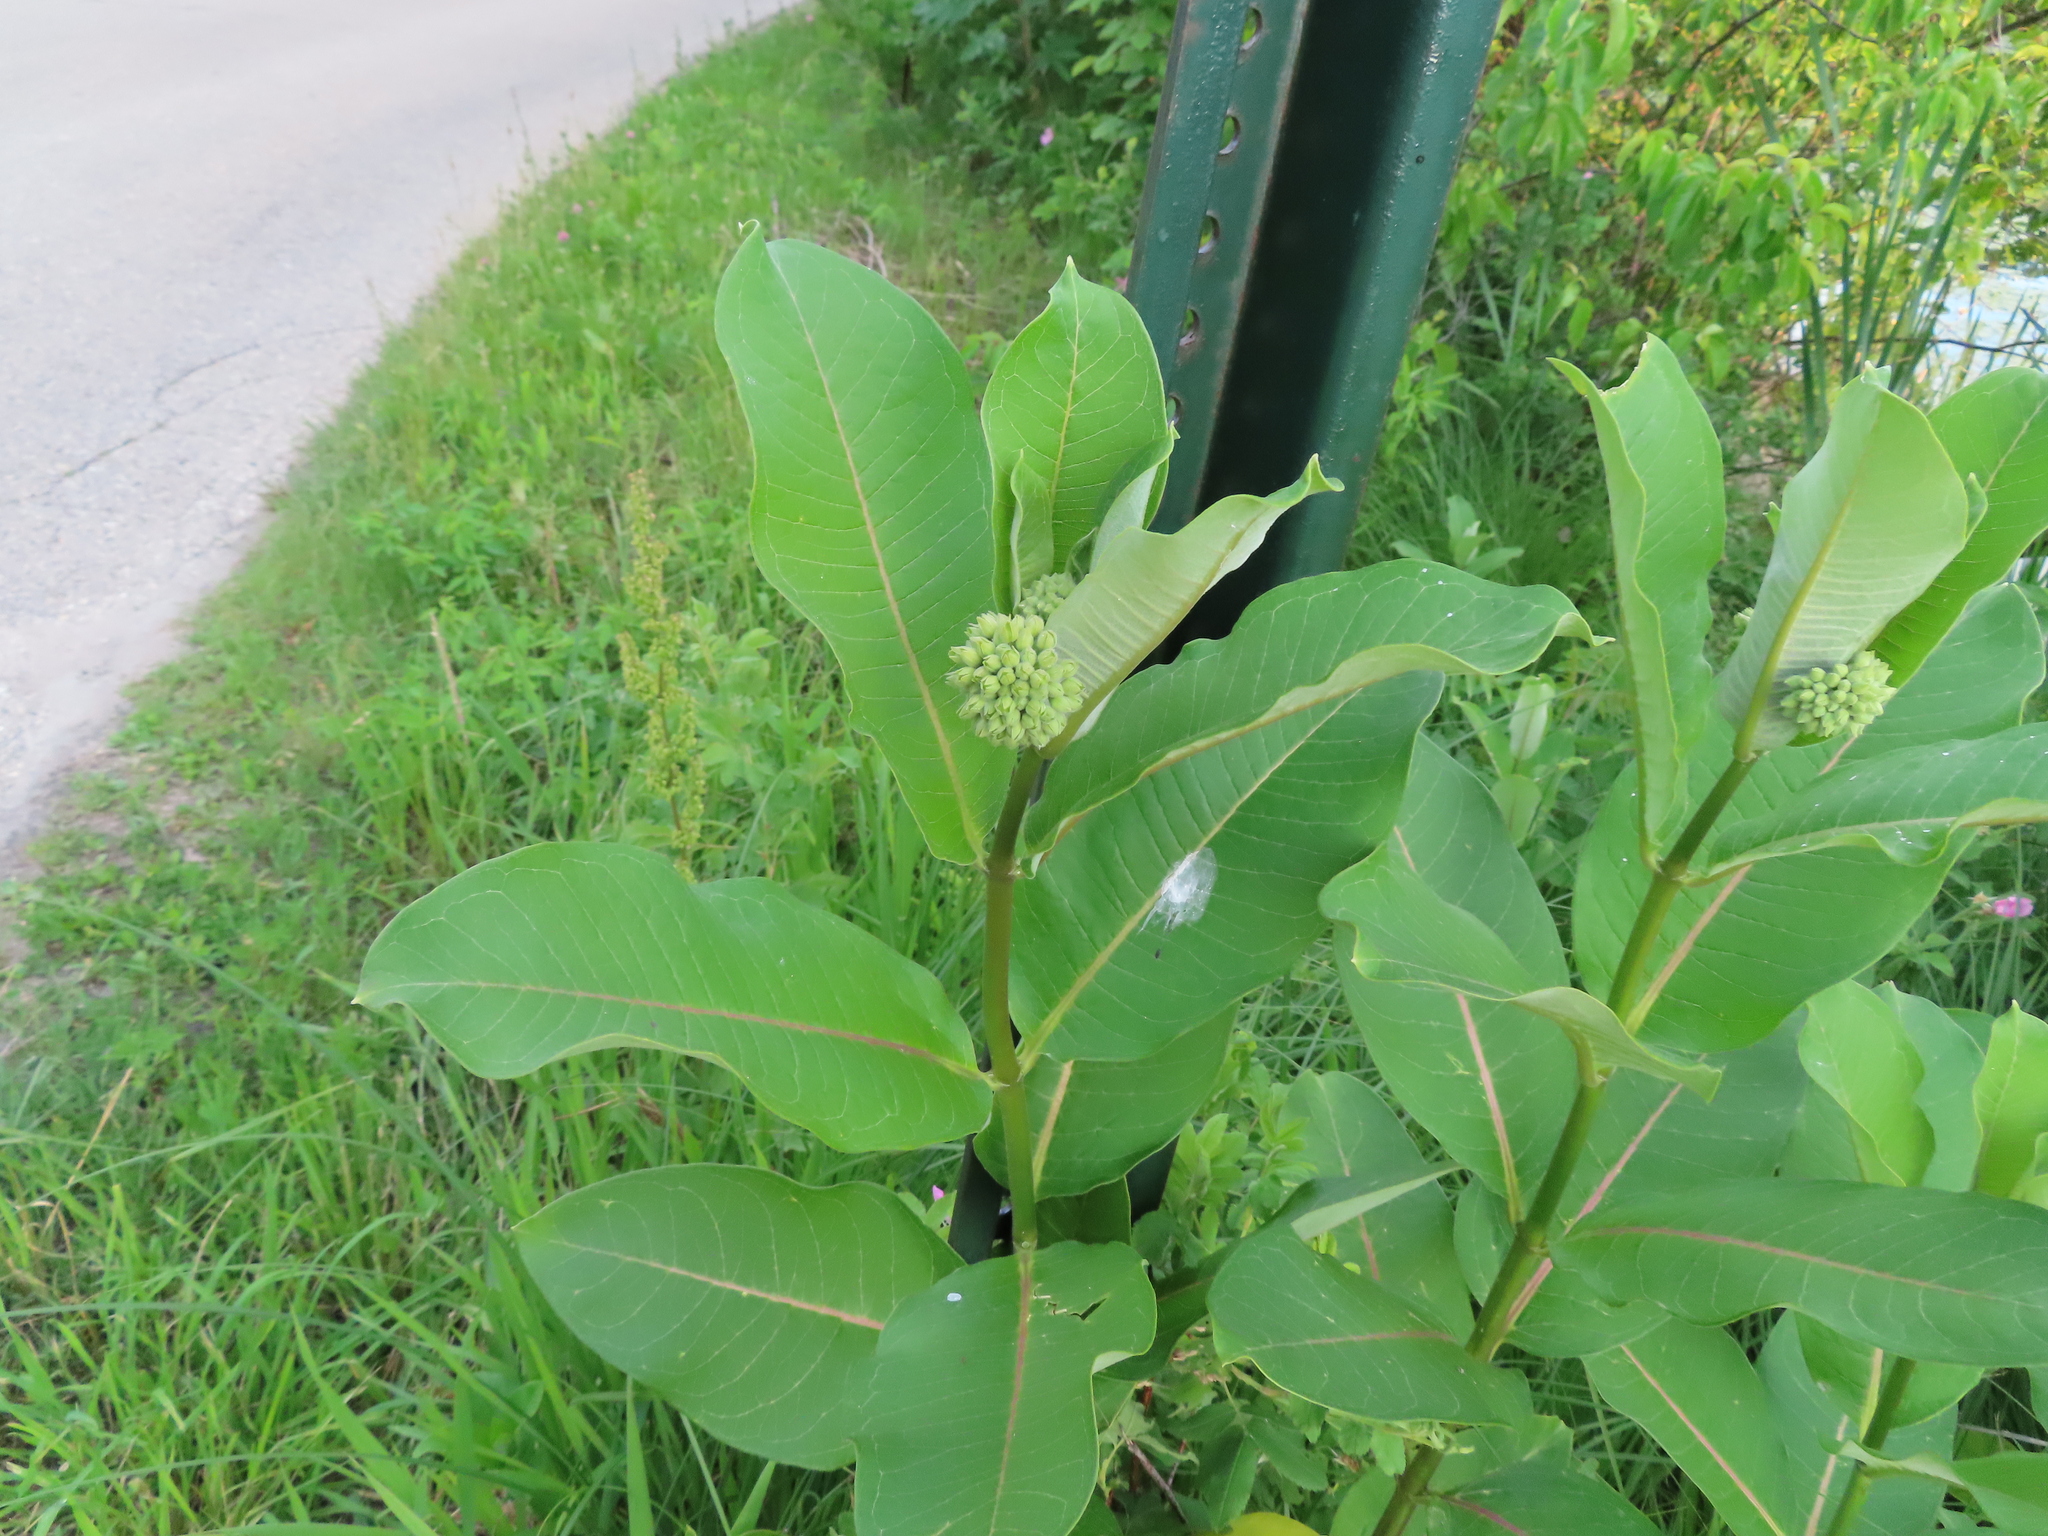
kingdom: Plantae
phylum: Tracheophyta
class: Magnoliopsida
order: Gentianales
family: Apocynaceae
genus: Asclepias
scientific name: Asclepias syriaca
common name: Common milkweed
